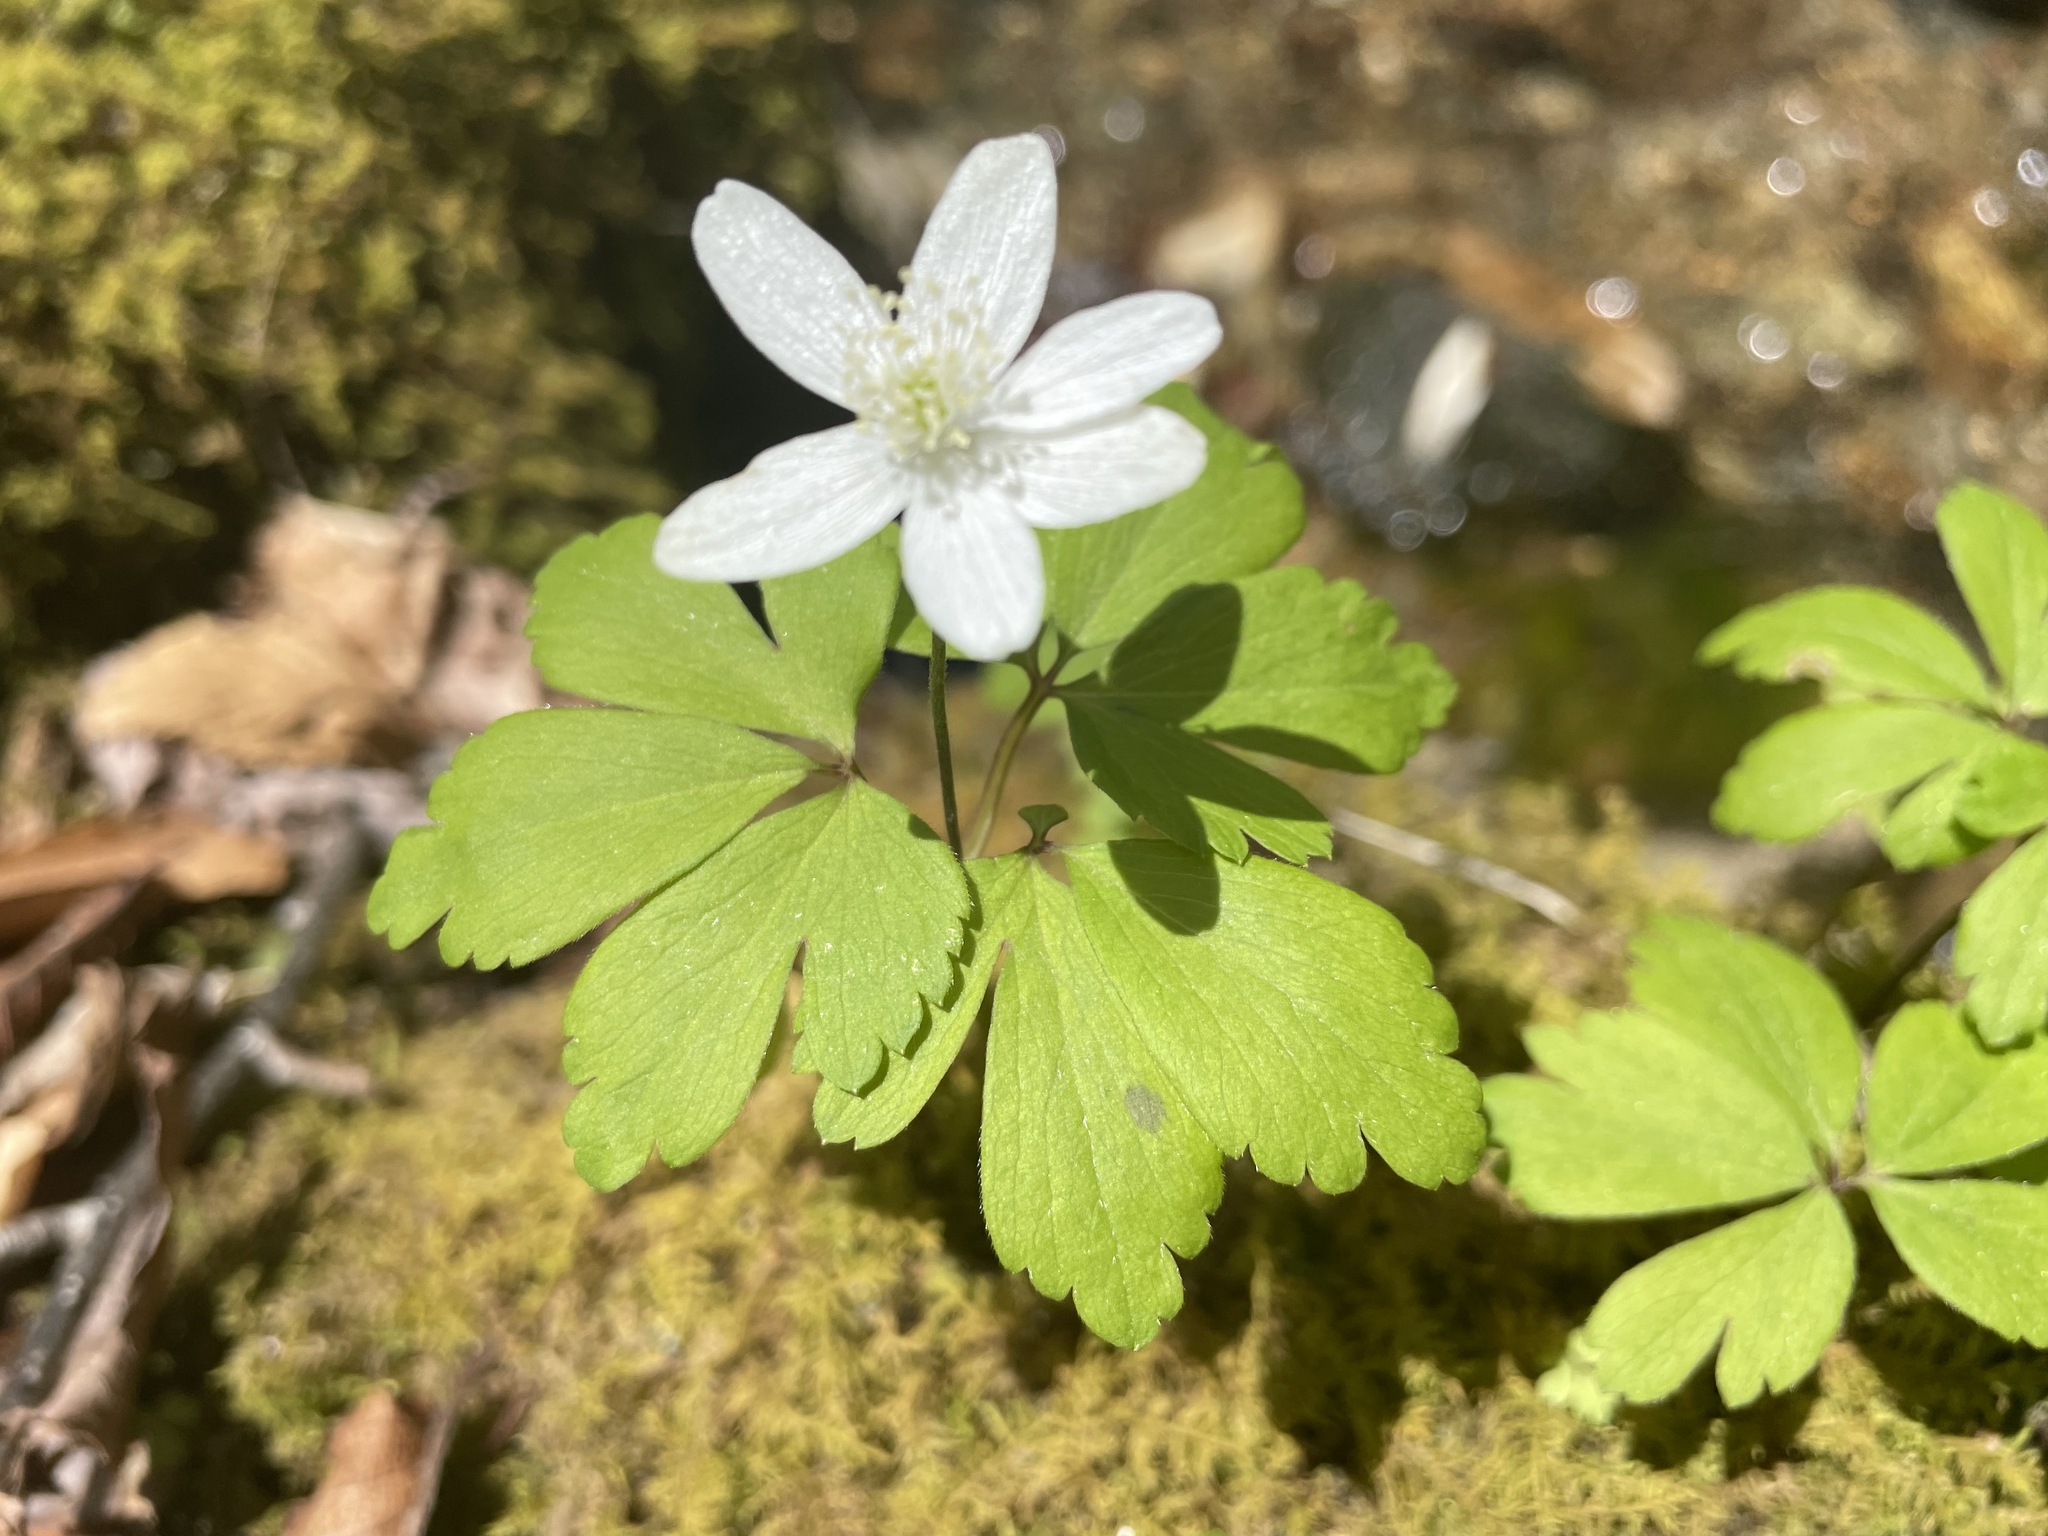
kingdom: Plantae
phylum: Tracheophyta
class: Magnoliopsida
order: Ranunculales
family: Ranunculaceae
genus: Anemone
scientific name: Anemone quinquefolia
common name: Wood anemone
